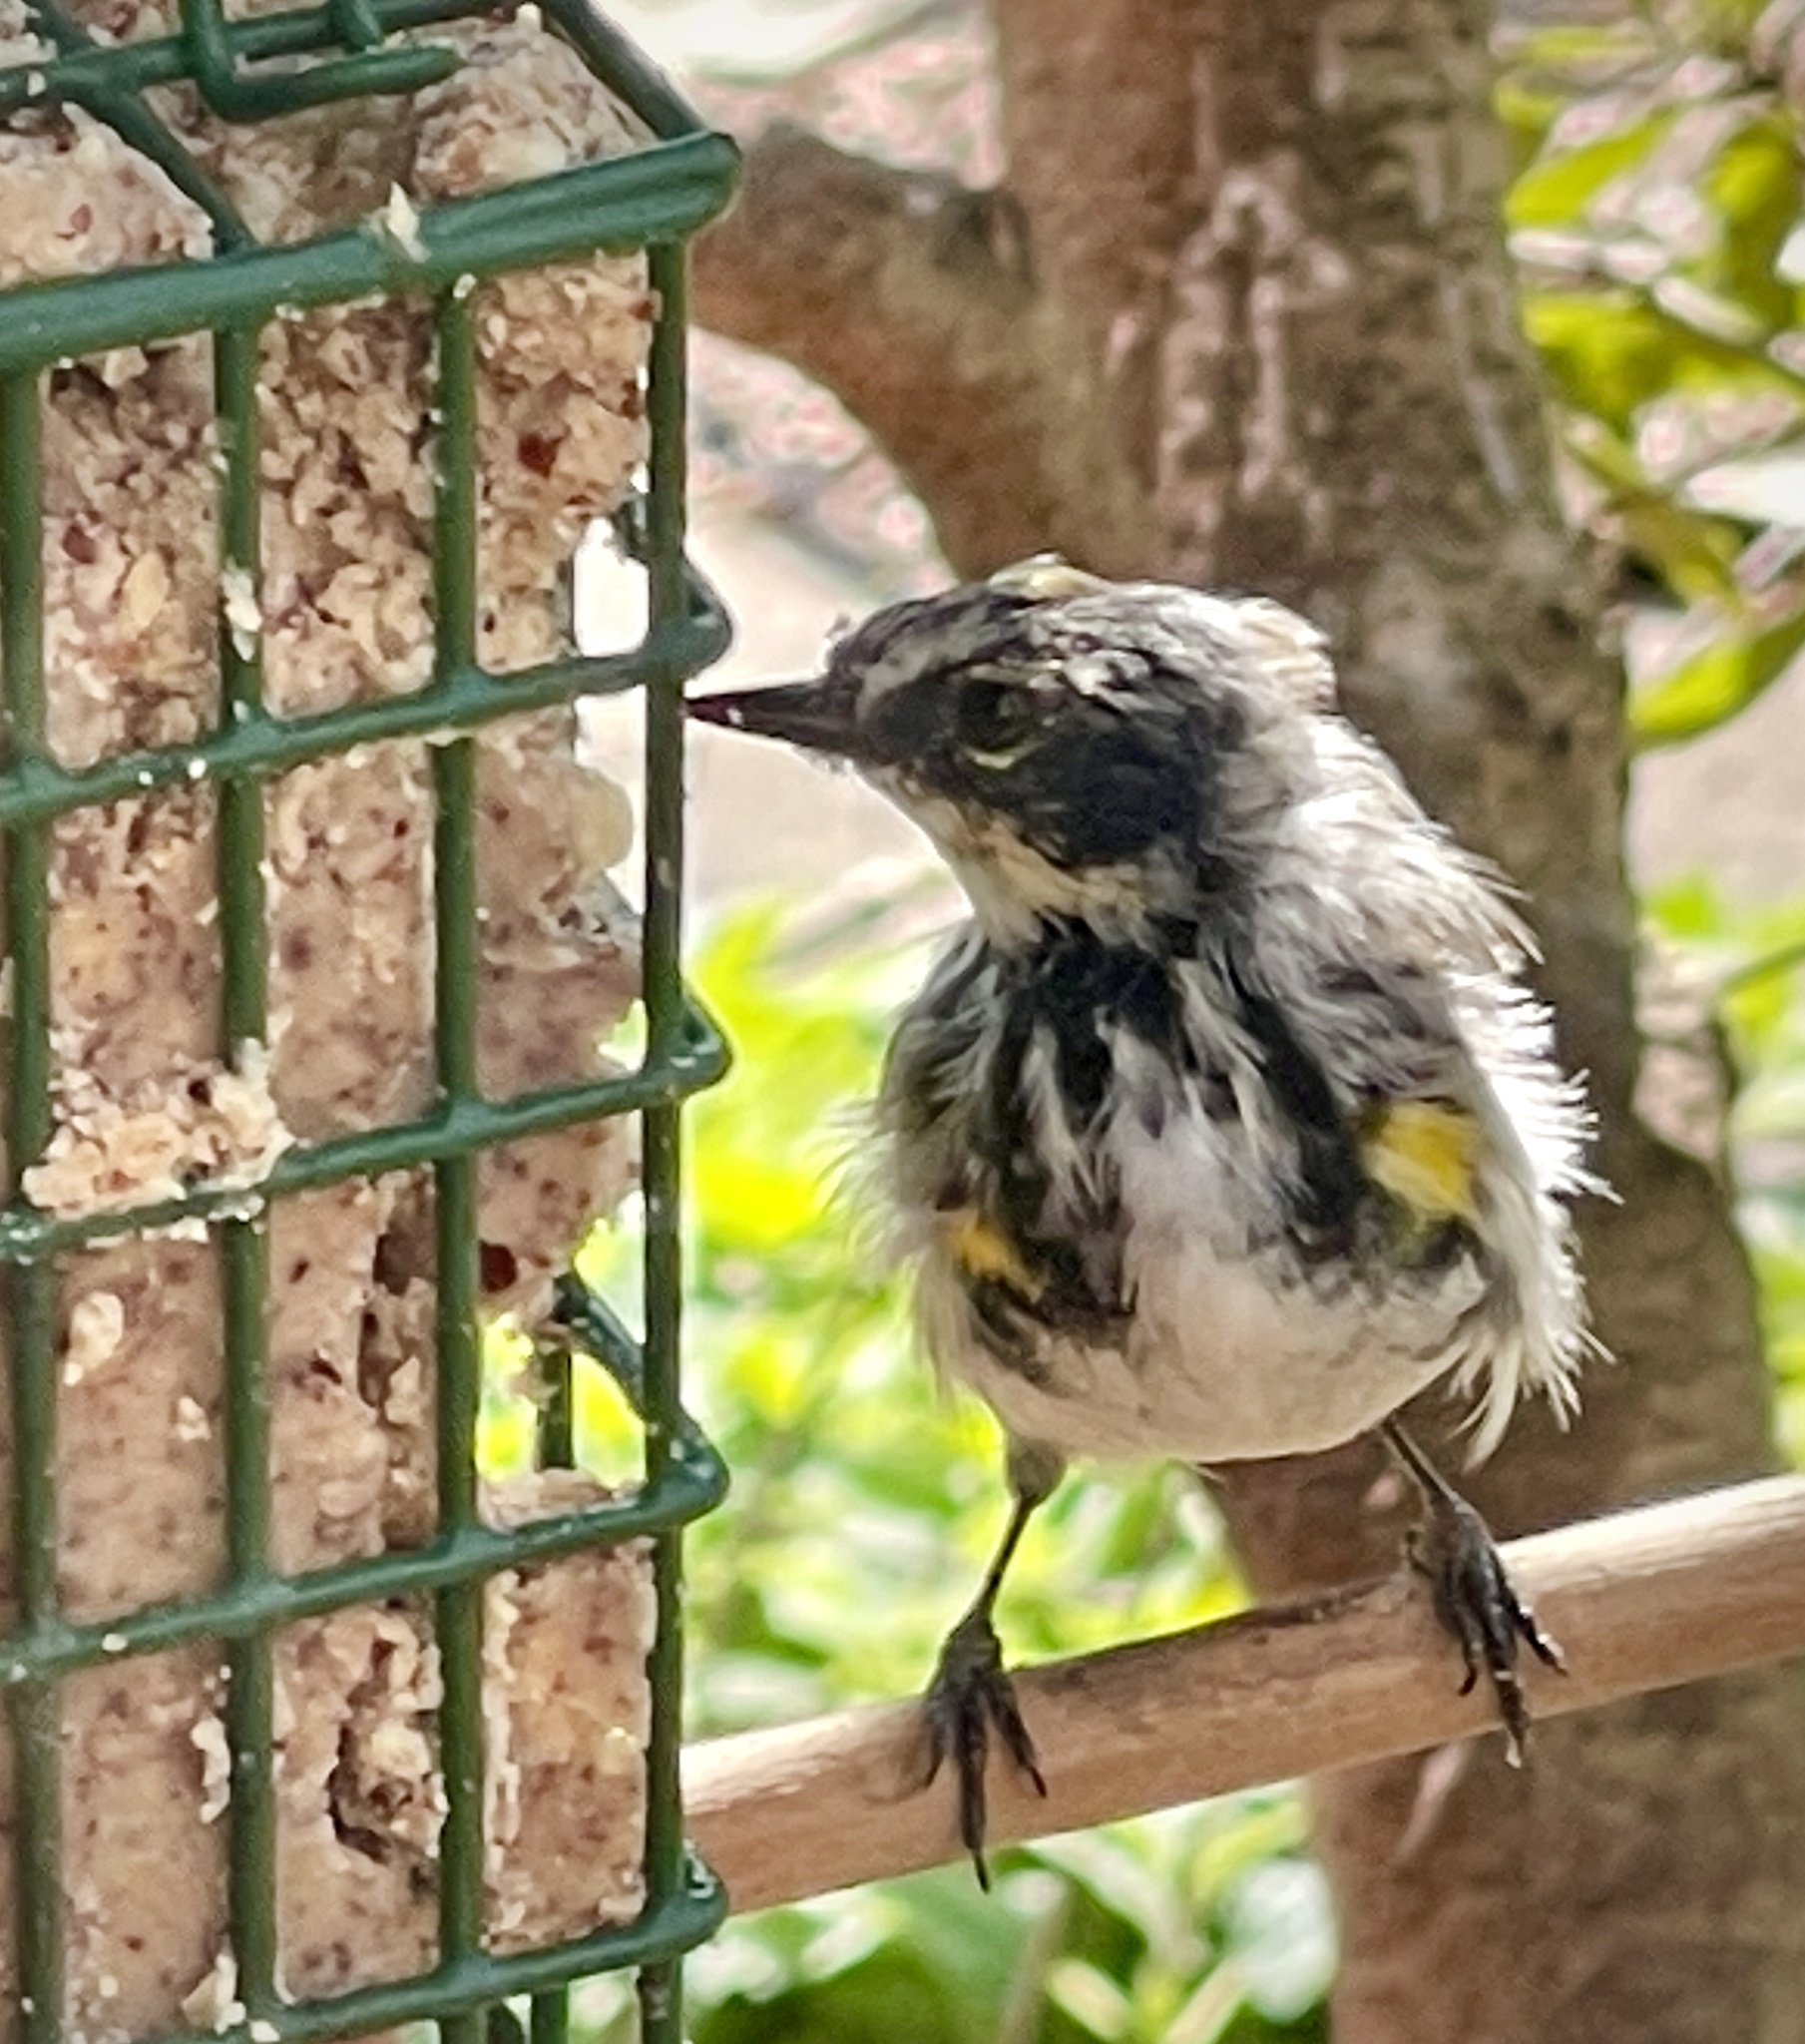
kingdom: Animalia
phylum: Chordata
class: Aves
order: Passeriformes
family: Parulidae
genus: Setophaga
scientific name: Setophaga coronata
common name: Myrtle warbler
